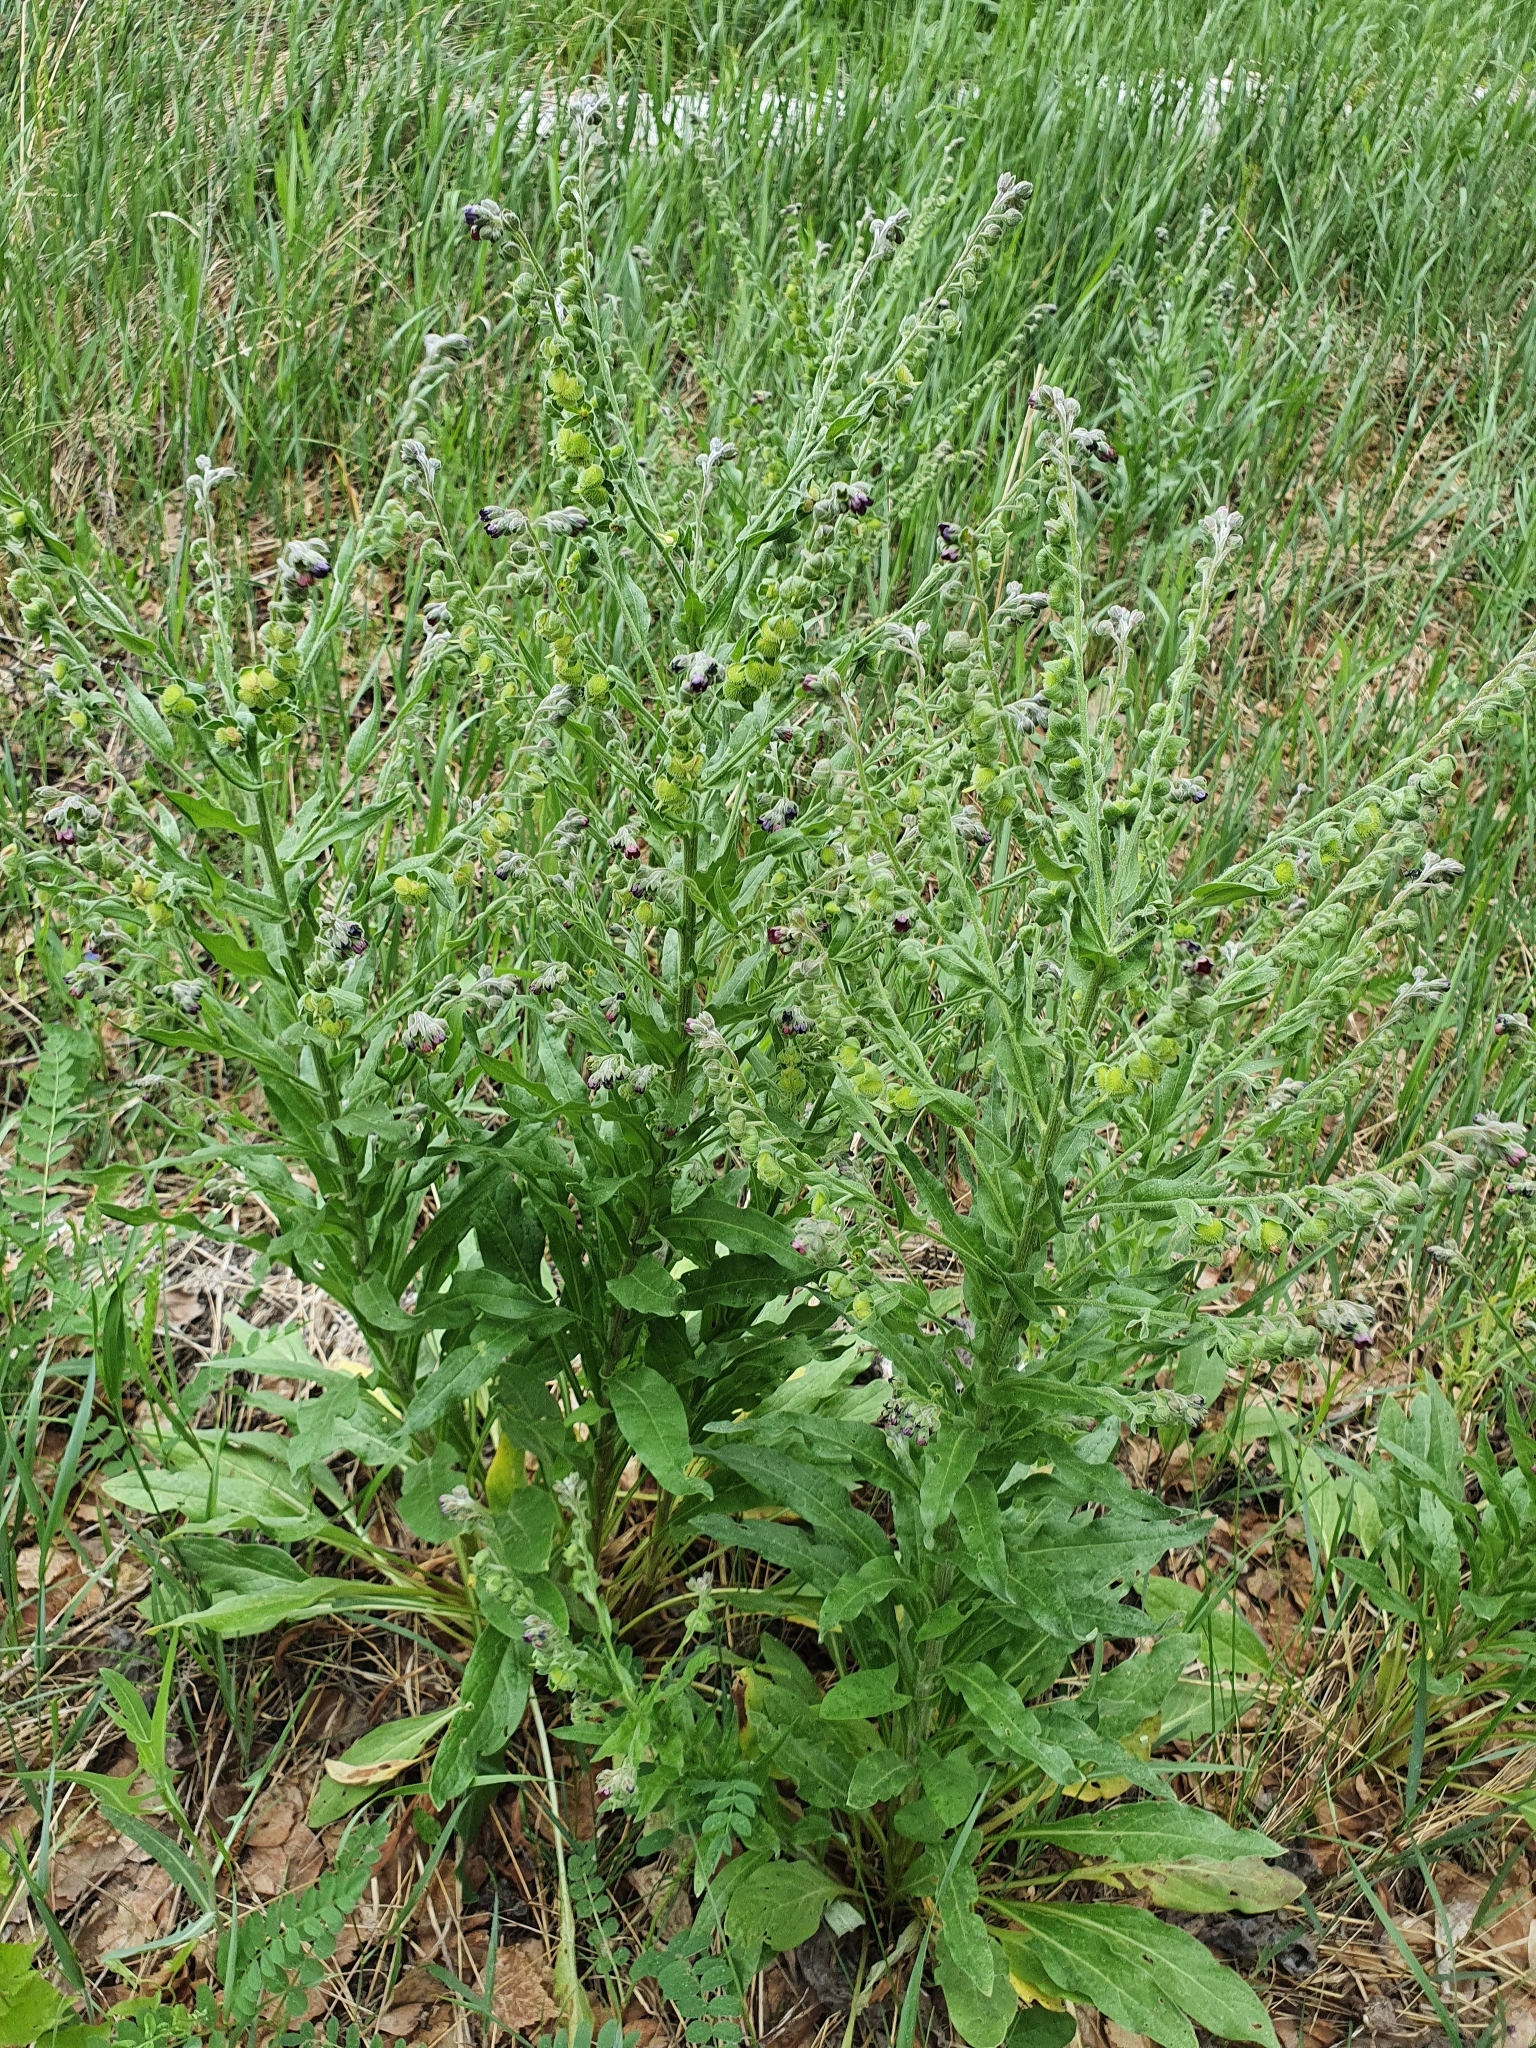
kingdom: Plantae
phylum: Tracheophyta
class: Magnoliopsida
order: Boraginales
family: Boraginaceae
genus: Cynoglossum
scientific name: Cynoglossum officinale
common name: Hound's-tongue
